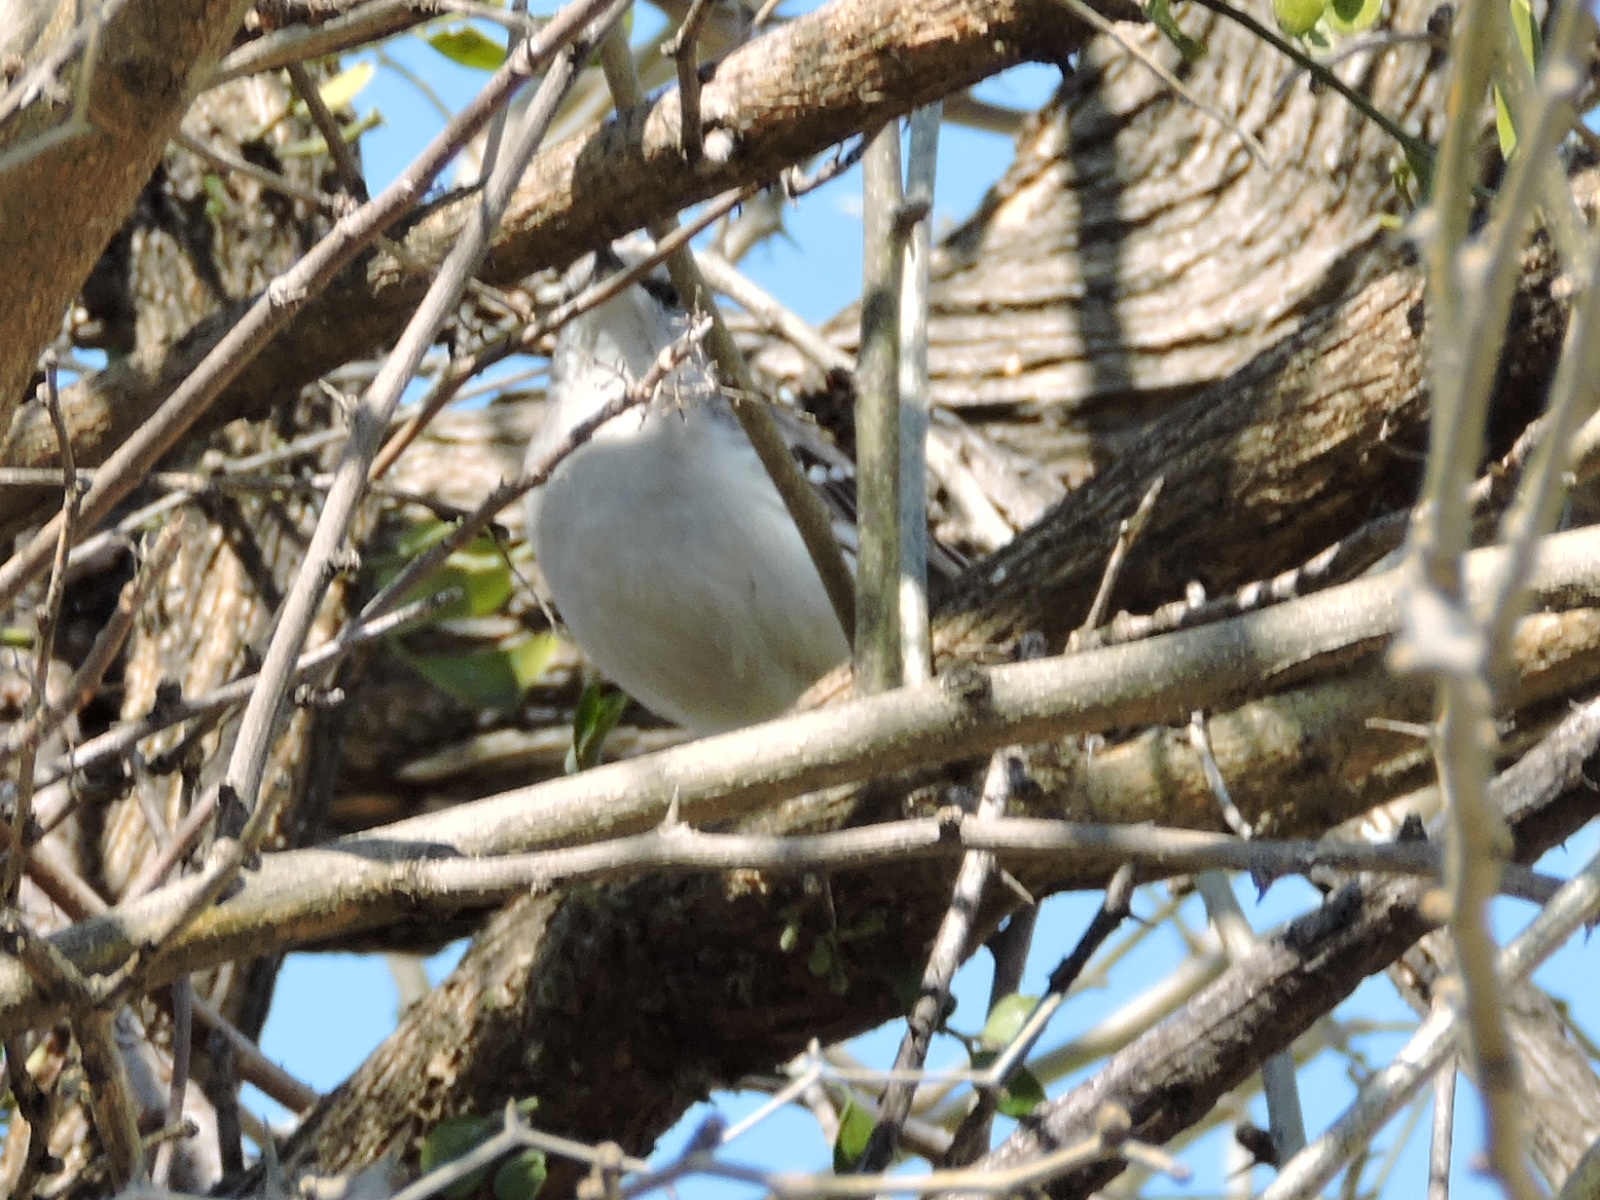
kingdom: Animalia
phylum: Chordata
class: Aves
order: Passeriformes
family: Mimidae
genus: Mimus
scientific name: Mimus polyglottos
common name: Northern mockingbird
